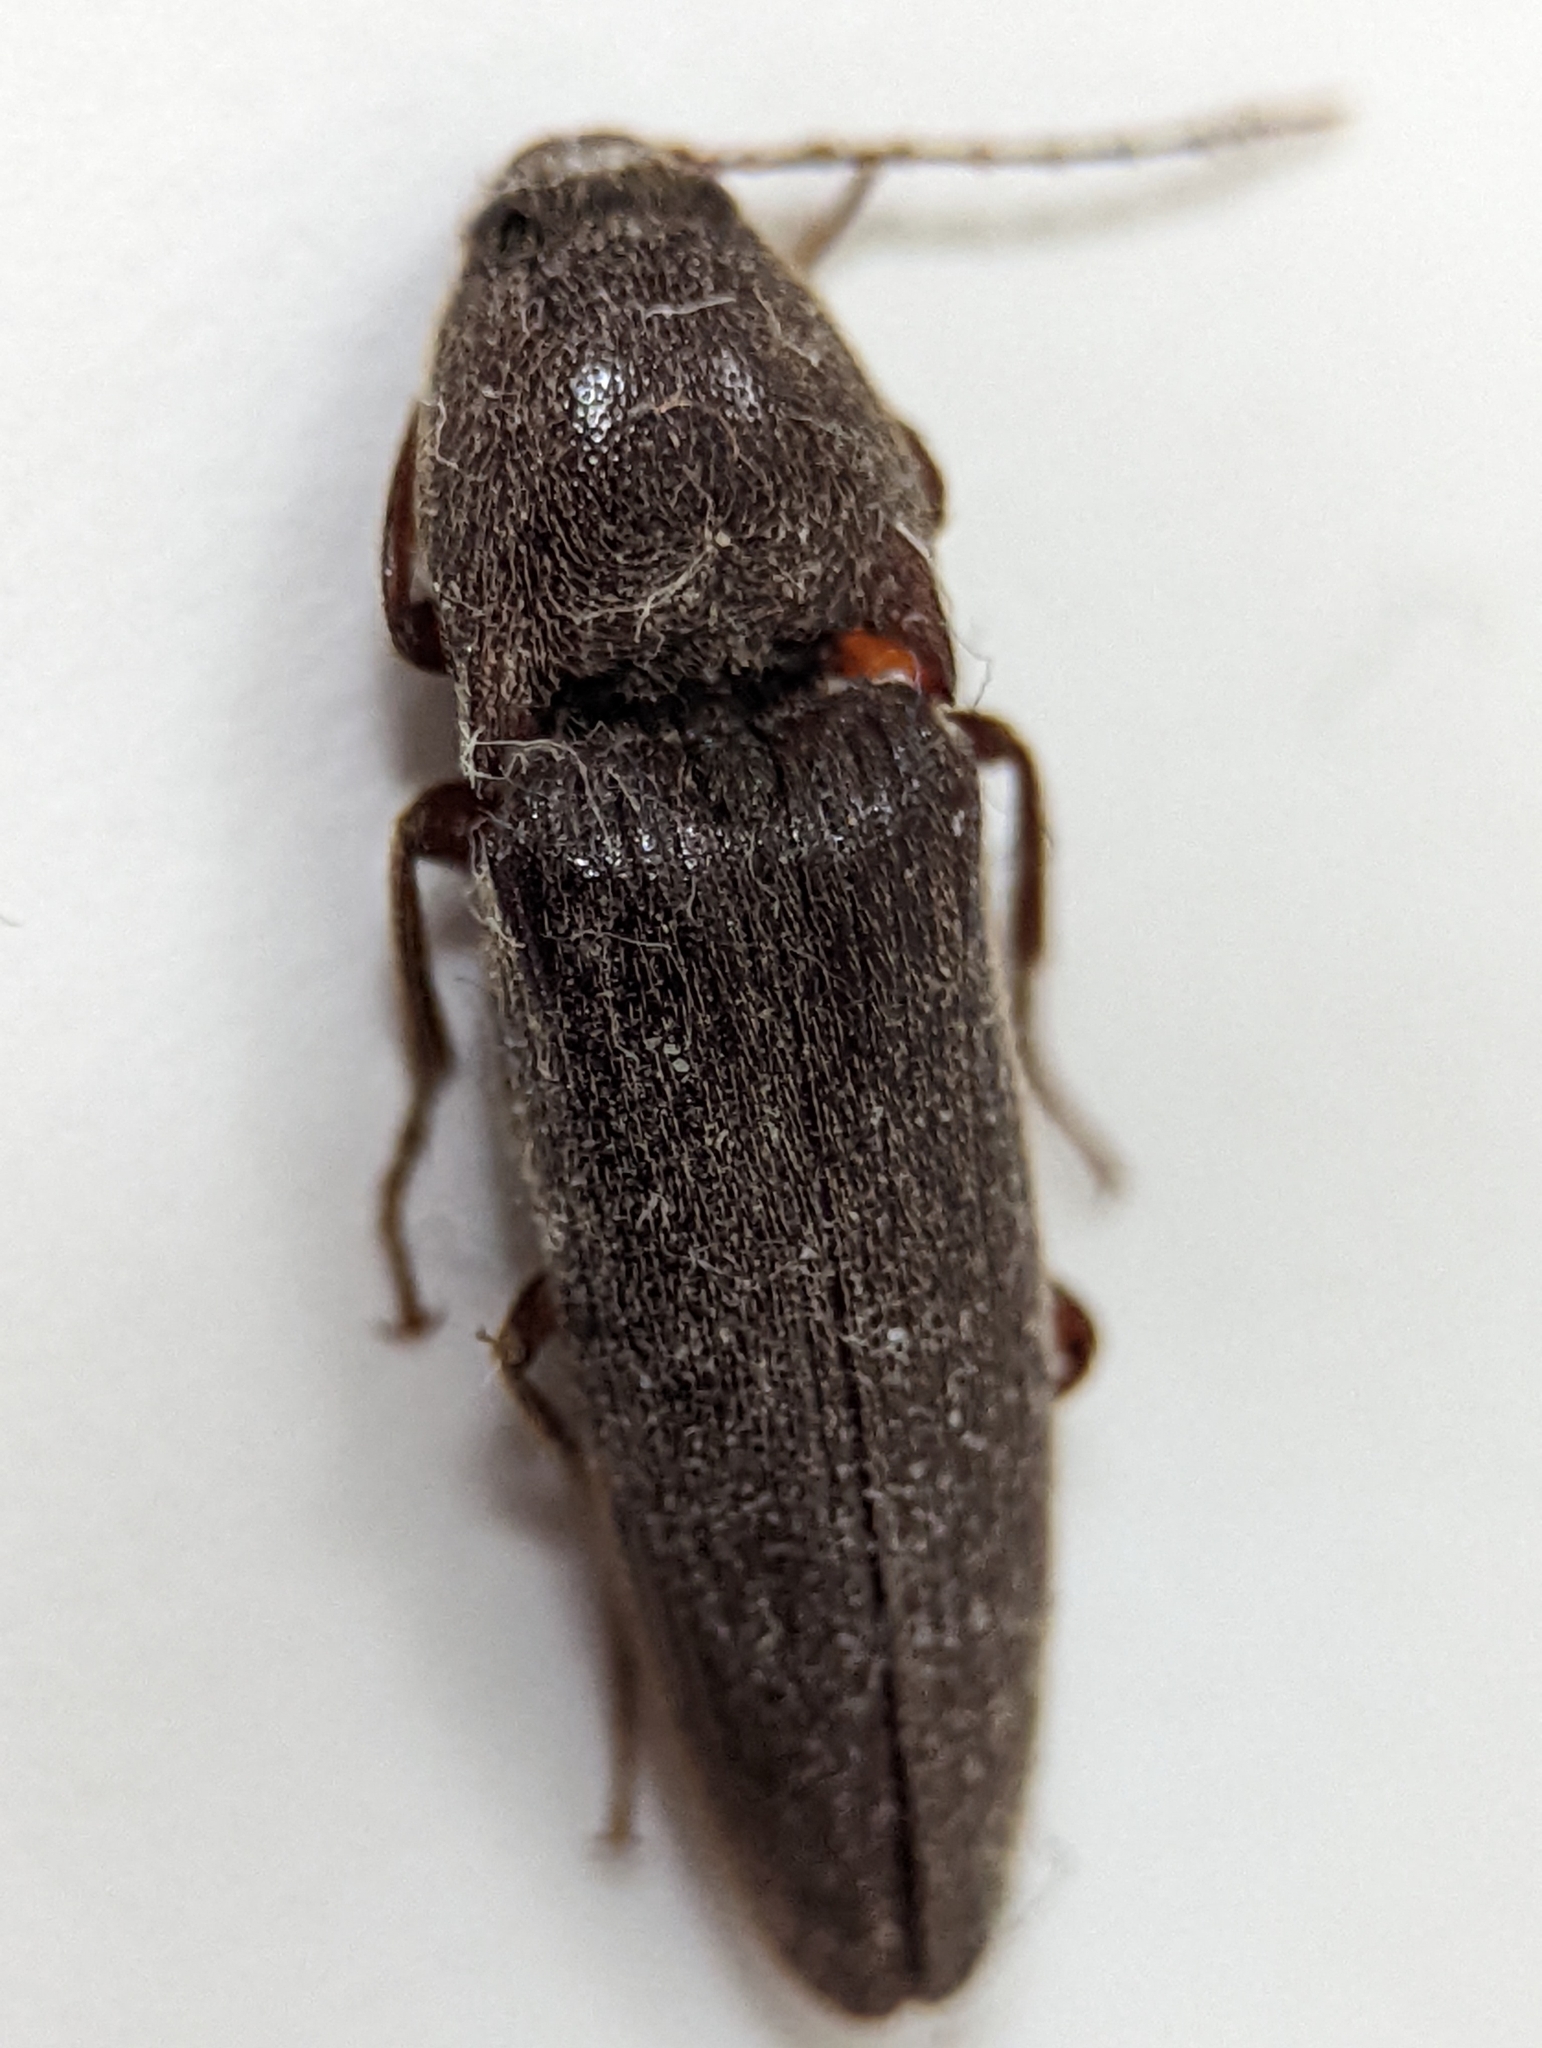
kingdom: Animalia
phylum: Arthropoda
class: Insecta
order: Coleoptera
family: Elateridae
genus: Melanotus
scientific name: Melanotus castanipes
